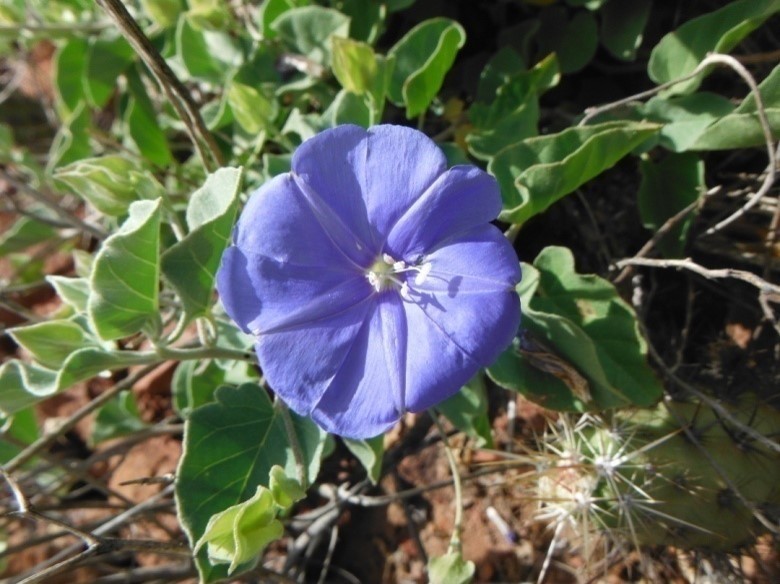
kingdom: Plantae
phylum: Tracheophyta
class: Magnoliopsida
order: Solanales
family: Convolvulaceae
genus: Jacquemontia
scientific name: Jacquemontia abutiloides
